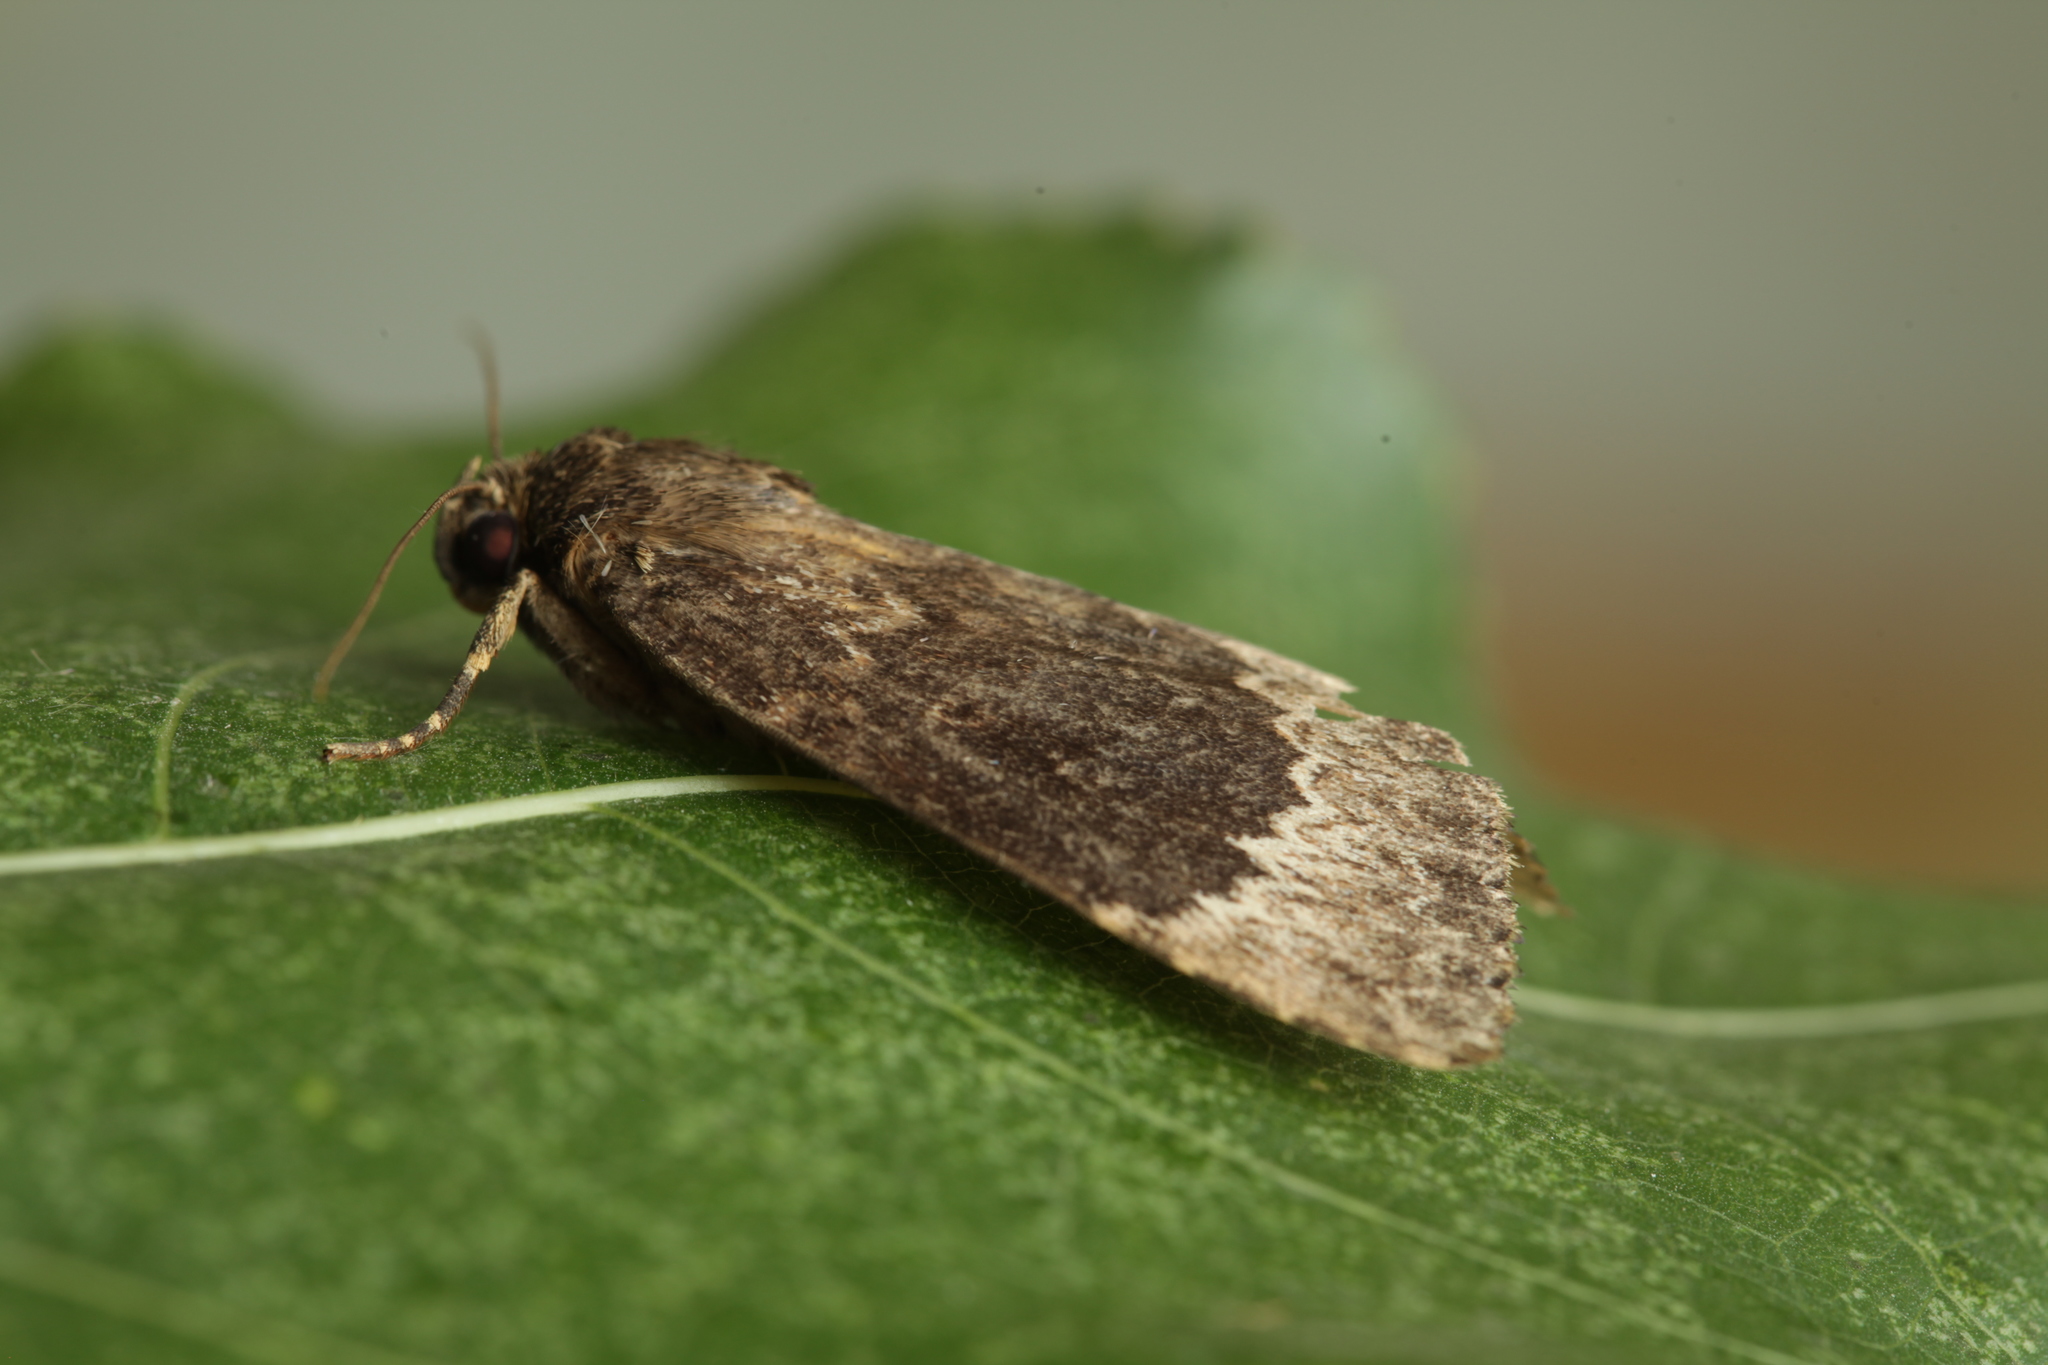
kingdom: Animalia
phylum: Arthropoda
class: Insecta
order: Lepidoptera
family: Noctuidae
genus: Amphipyra
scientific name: Amphipyra perflua
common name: Larger pale-tipped black moth
